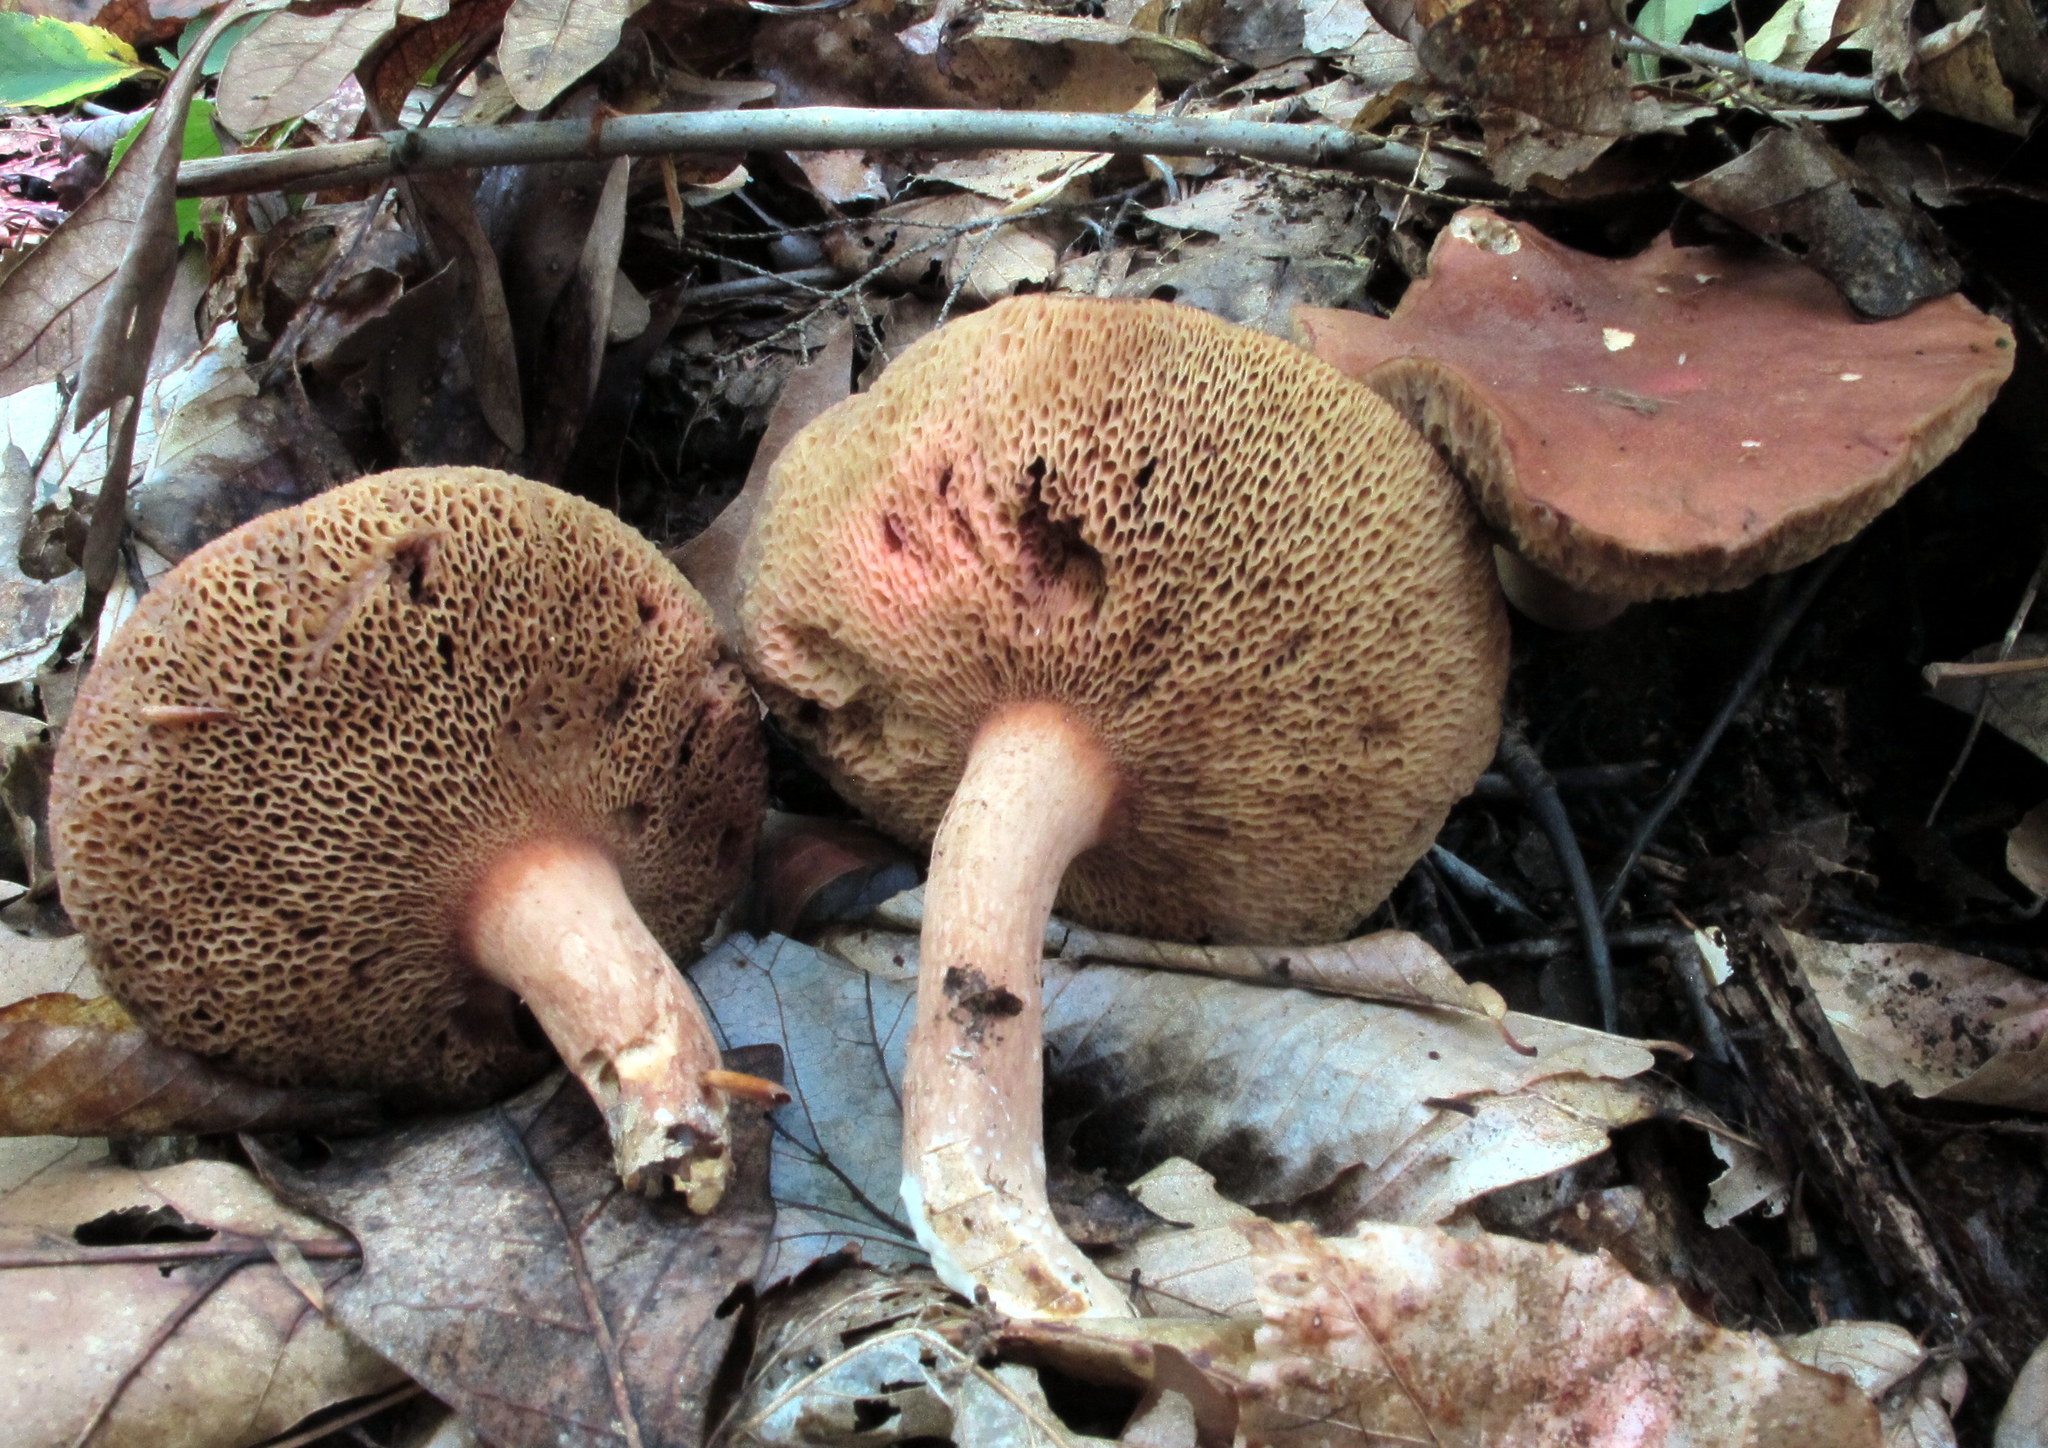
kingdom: Fungi
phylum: Basidiomycota
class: Agaricomycetes
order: Boletales
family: Boletaceae
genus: Bothia
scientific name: Bothia castanella
